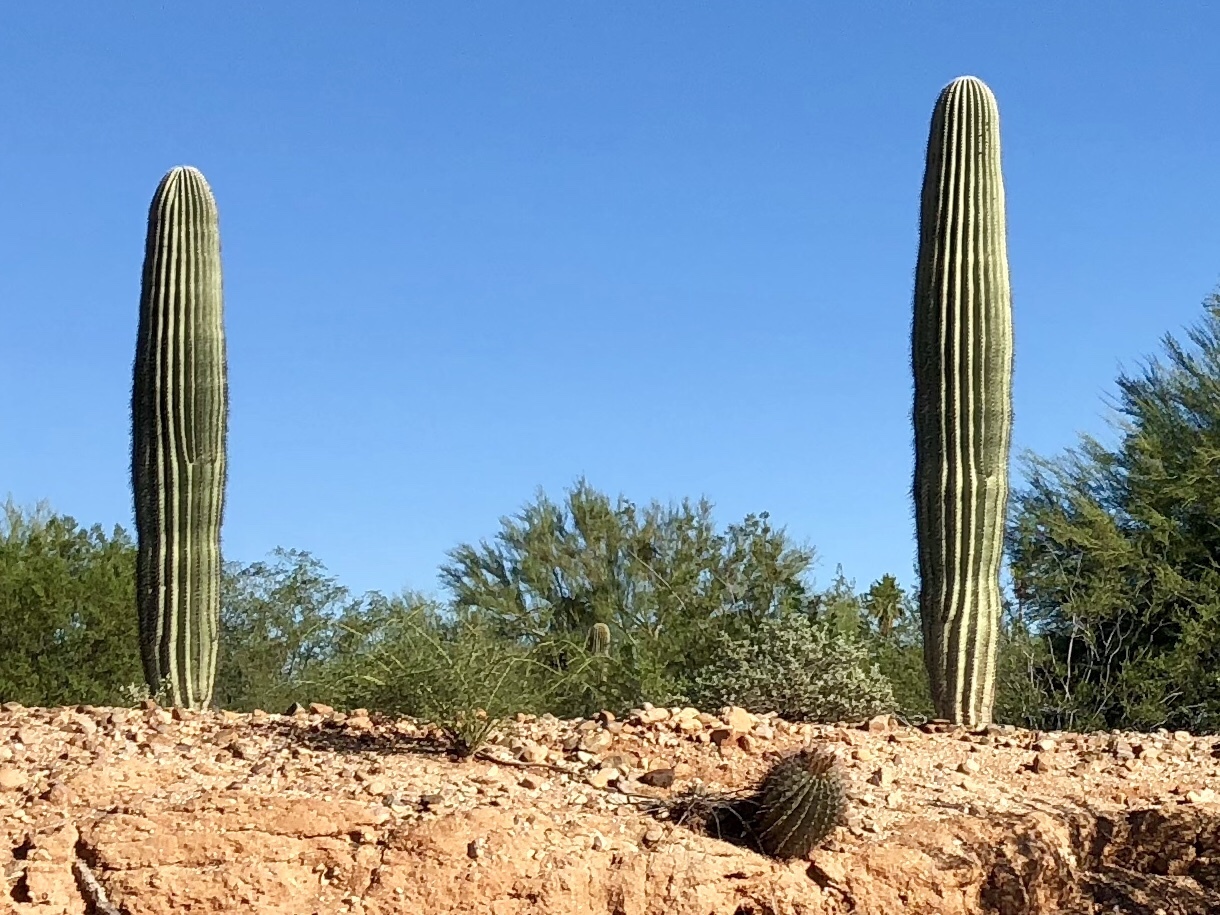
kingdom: Plantae
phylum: Tracheophyta
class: Magnoliopsida
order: Caryophyllales
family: Cactaceae
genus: Carnegiea
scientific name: Carnegiea gigantea
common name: Saguaro
